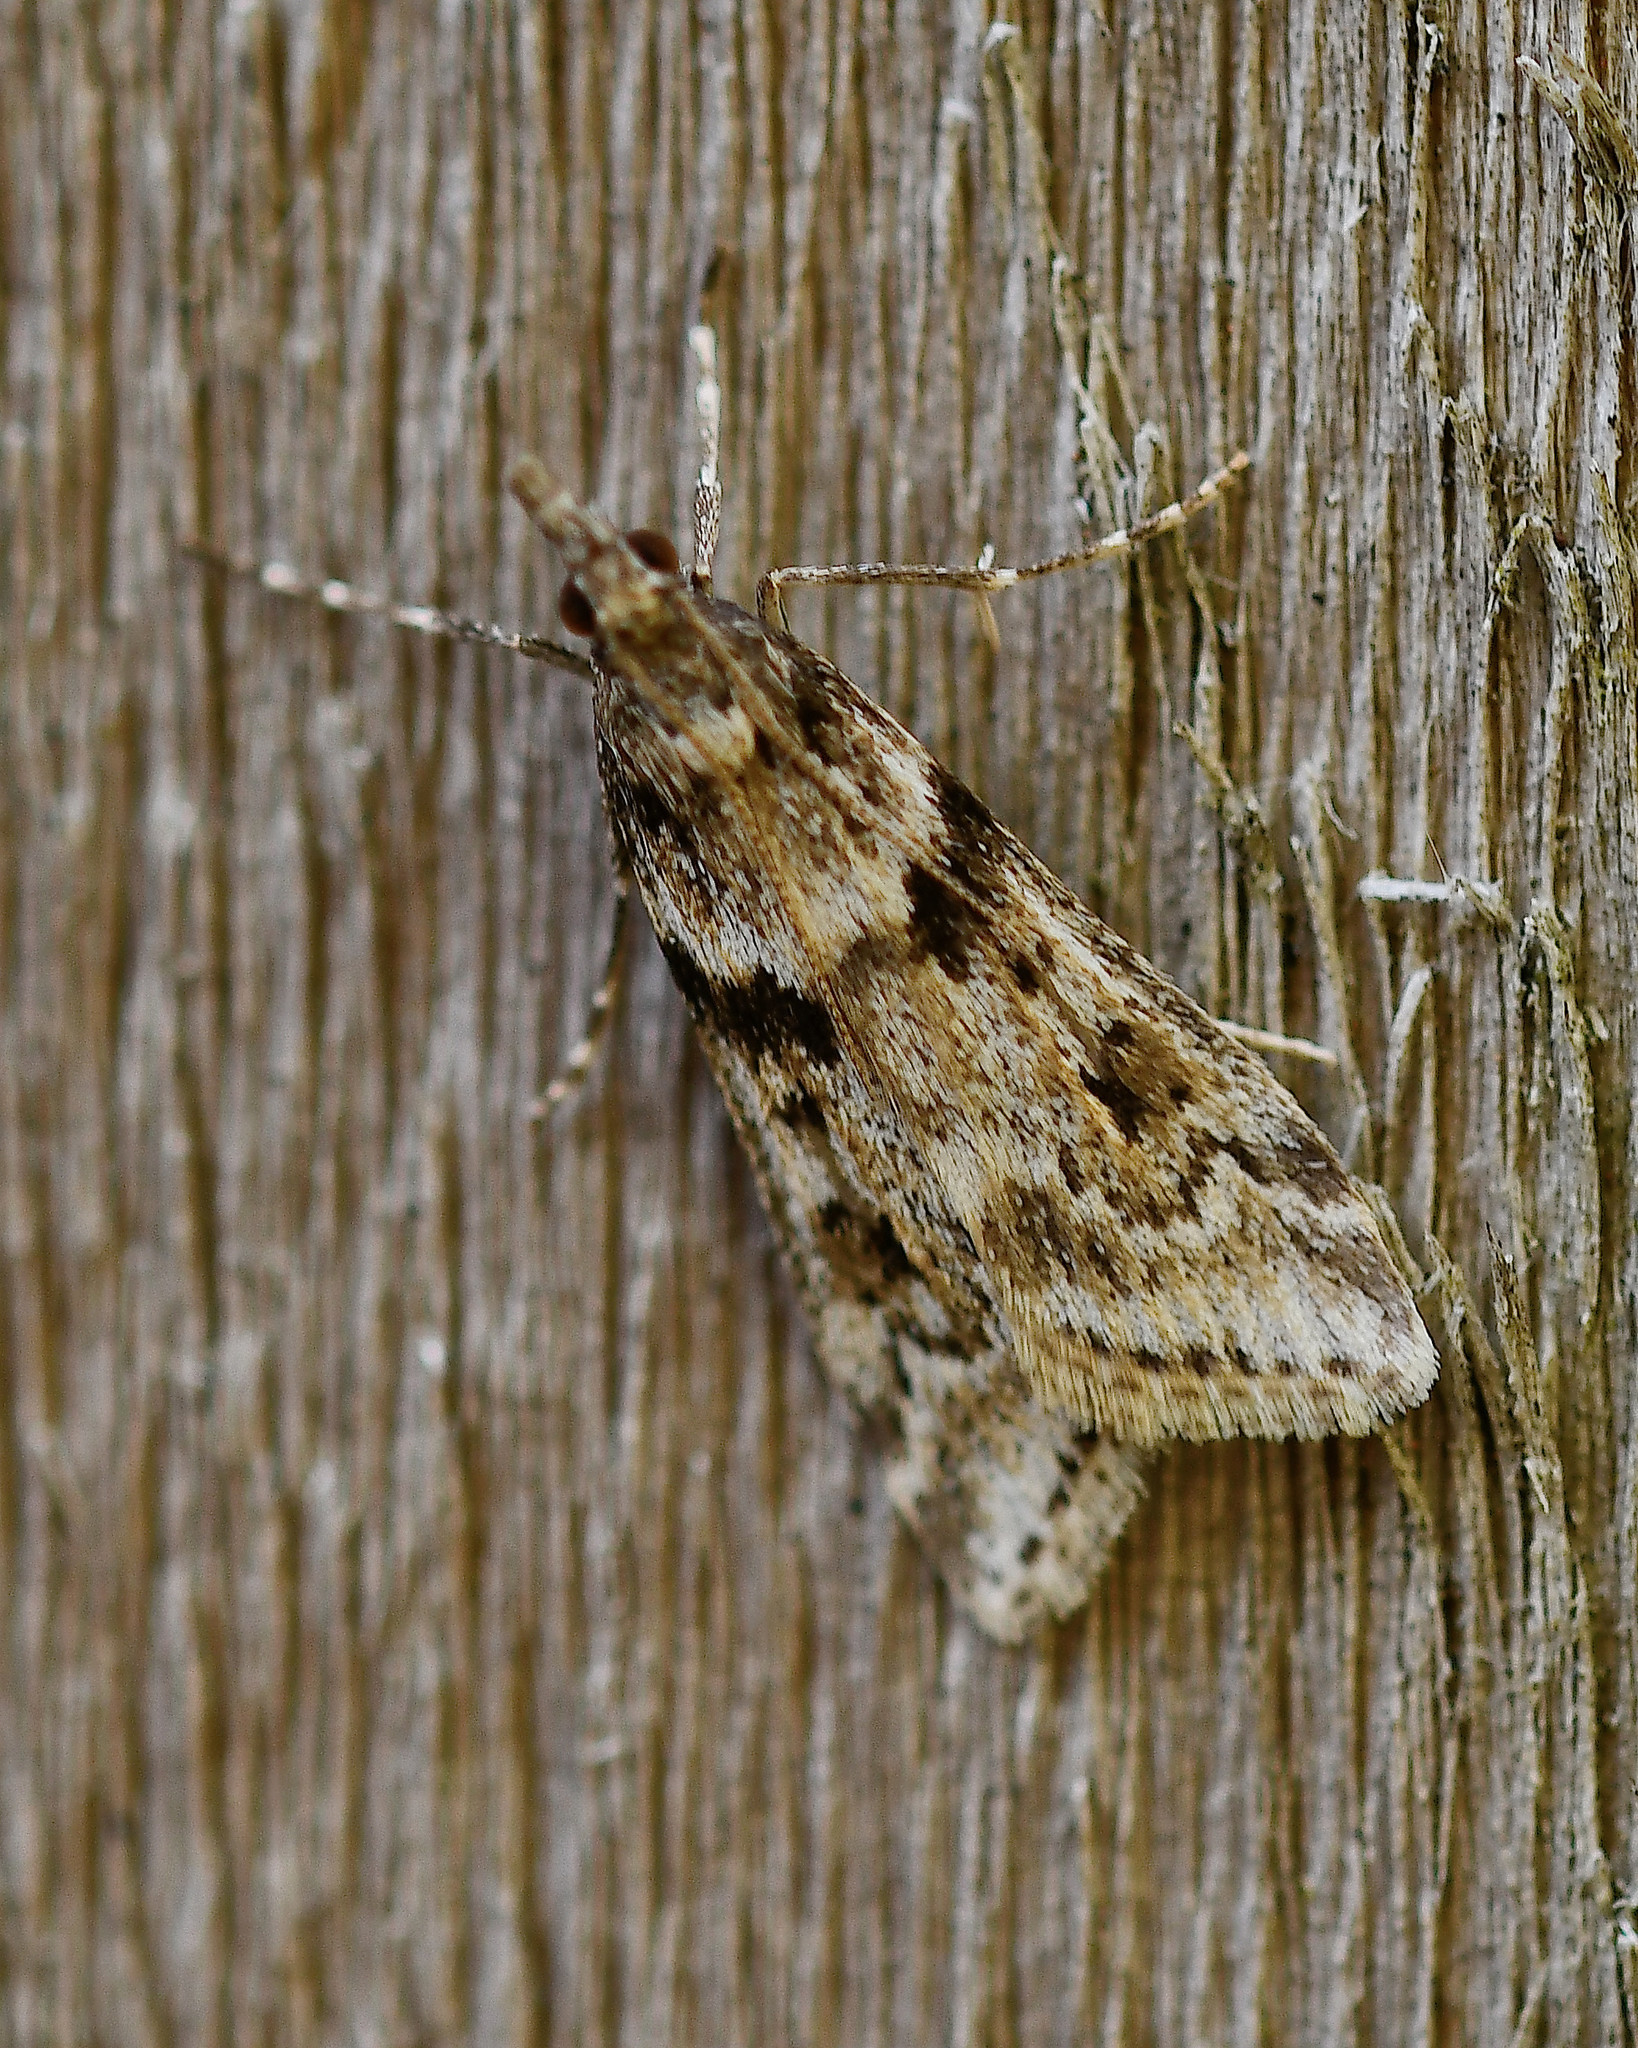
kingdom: Animalia
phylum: Arthropoda
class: Insecta
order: Lepidoptera
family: Crambidae
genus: Eudonia
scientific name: Eudonia angustea
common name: Narrow-winged grey
